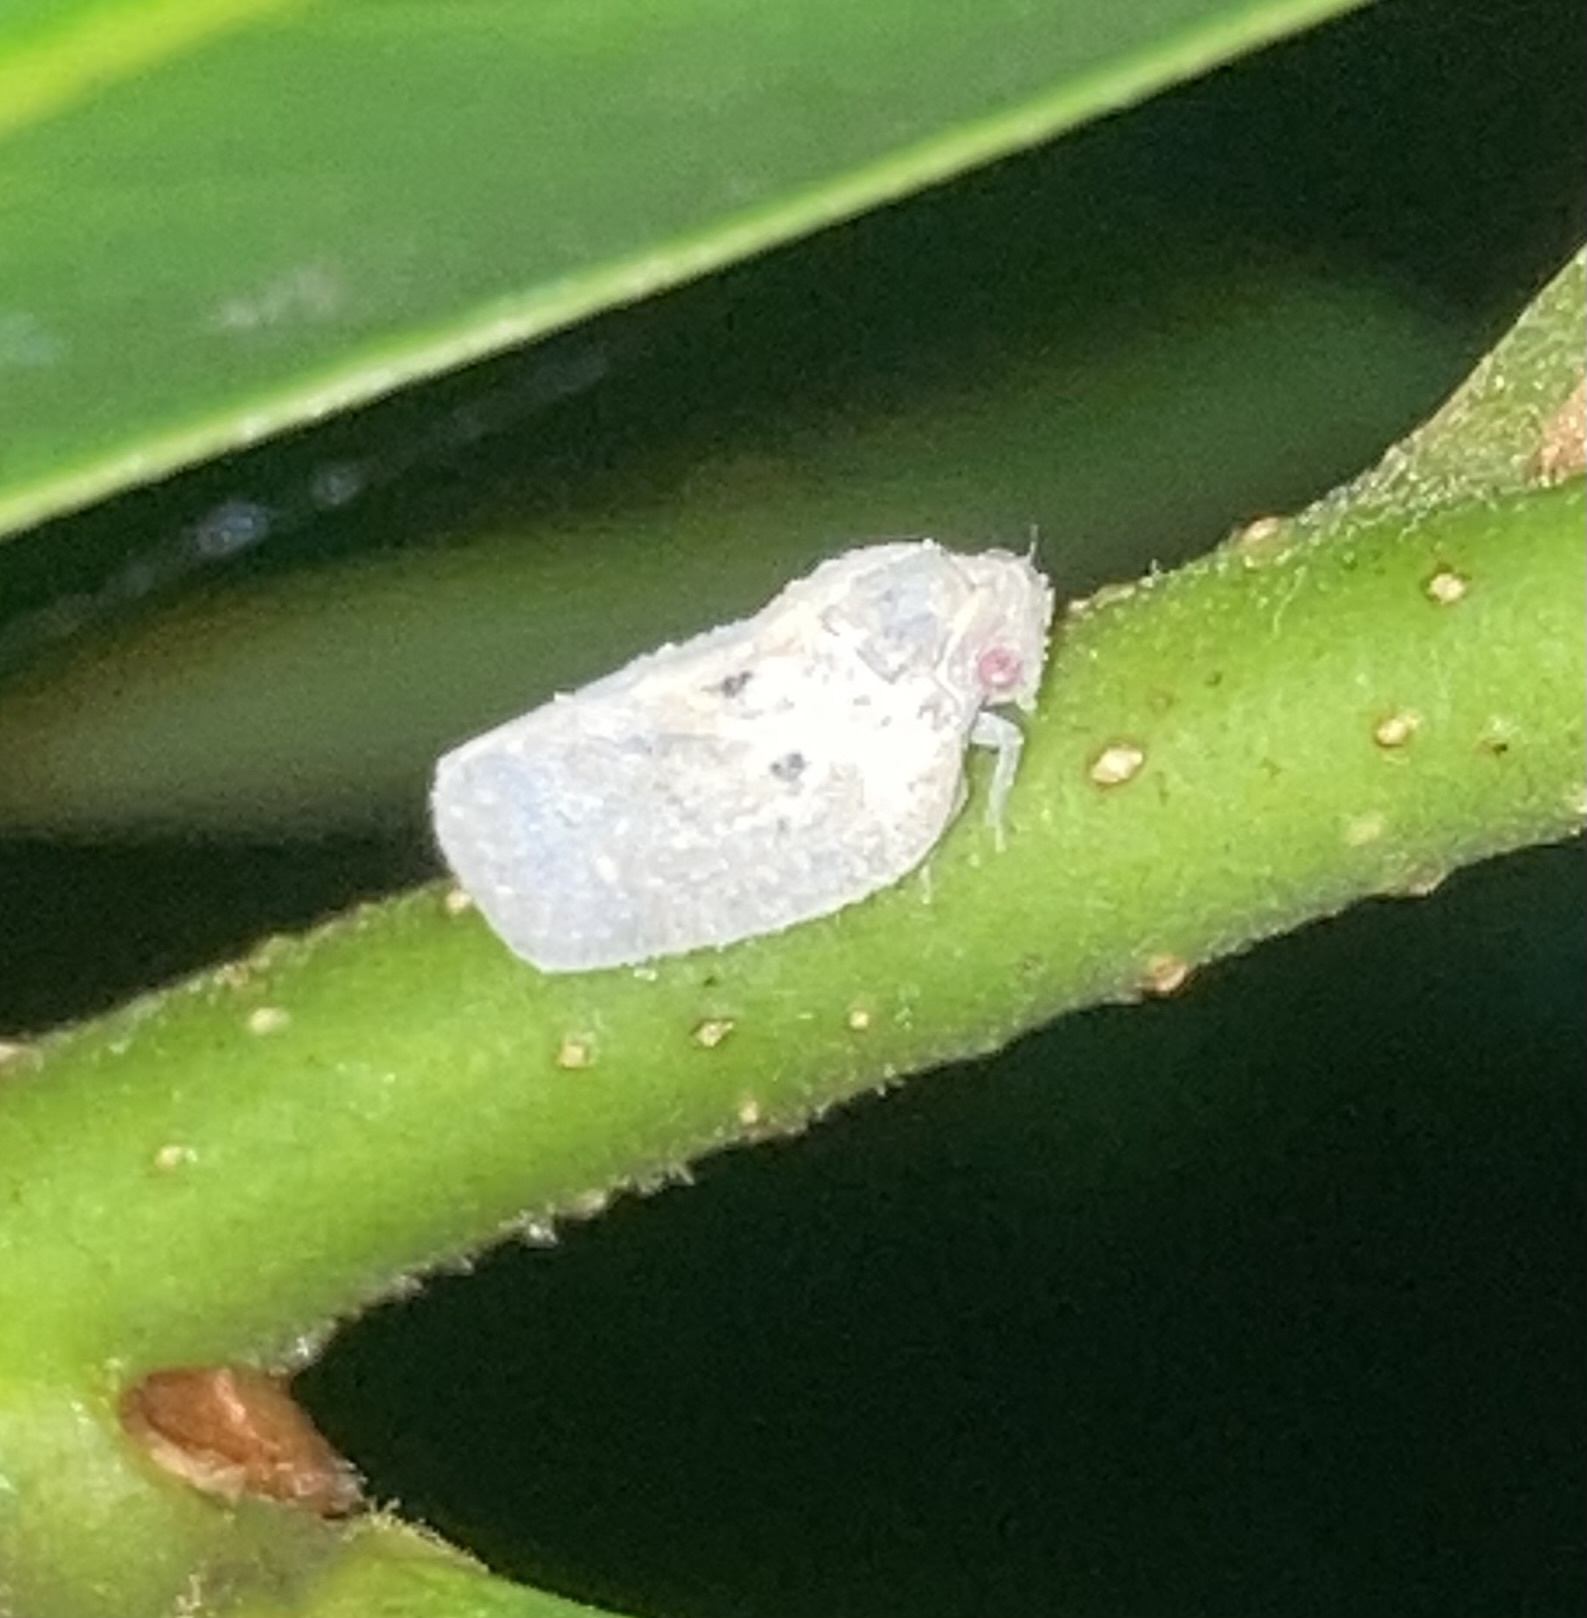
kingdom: Animalia
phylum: Arthropoda
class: Insecta
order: Hemiptera
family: Flatidae
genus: Melormenis
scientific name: Melormenis basalis
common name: Puerto rican planthopper
